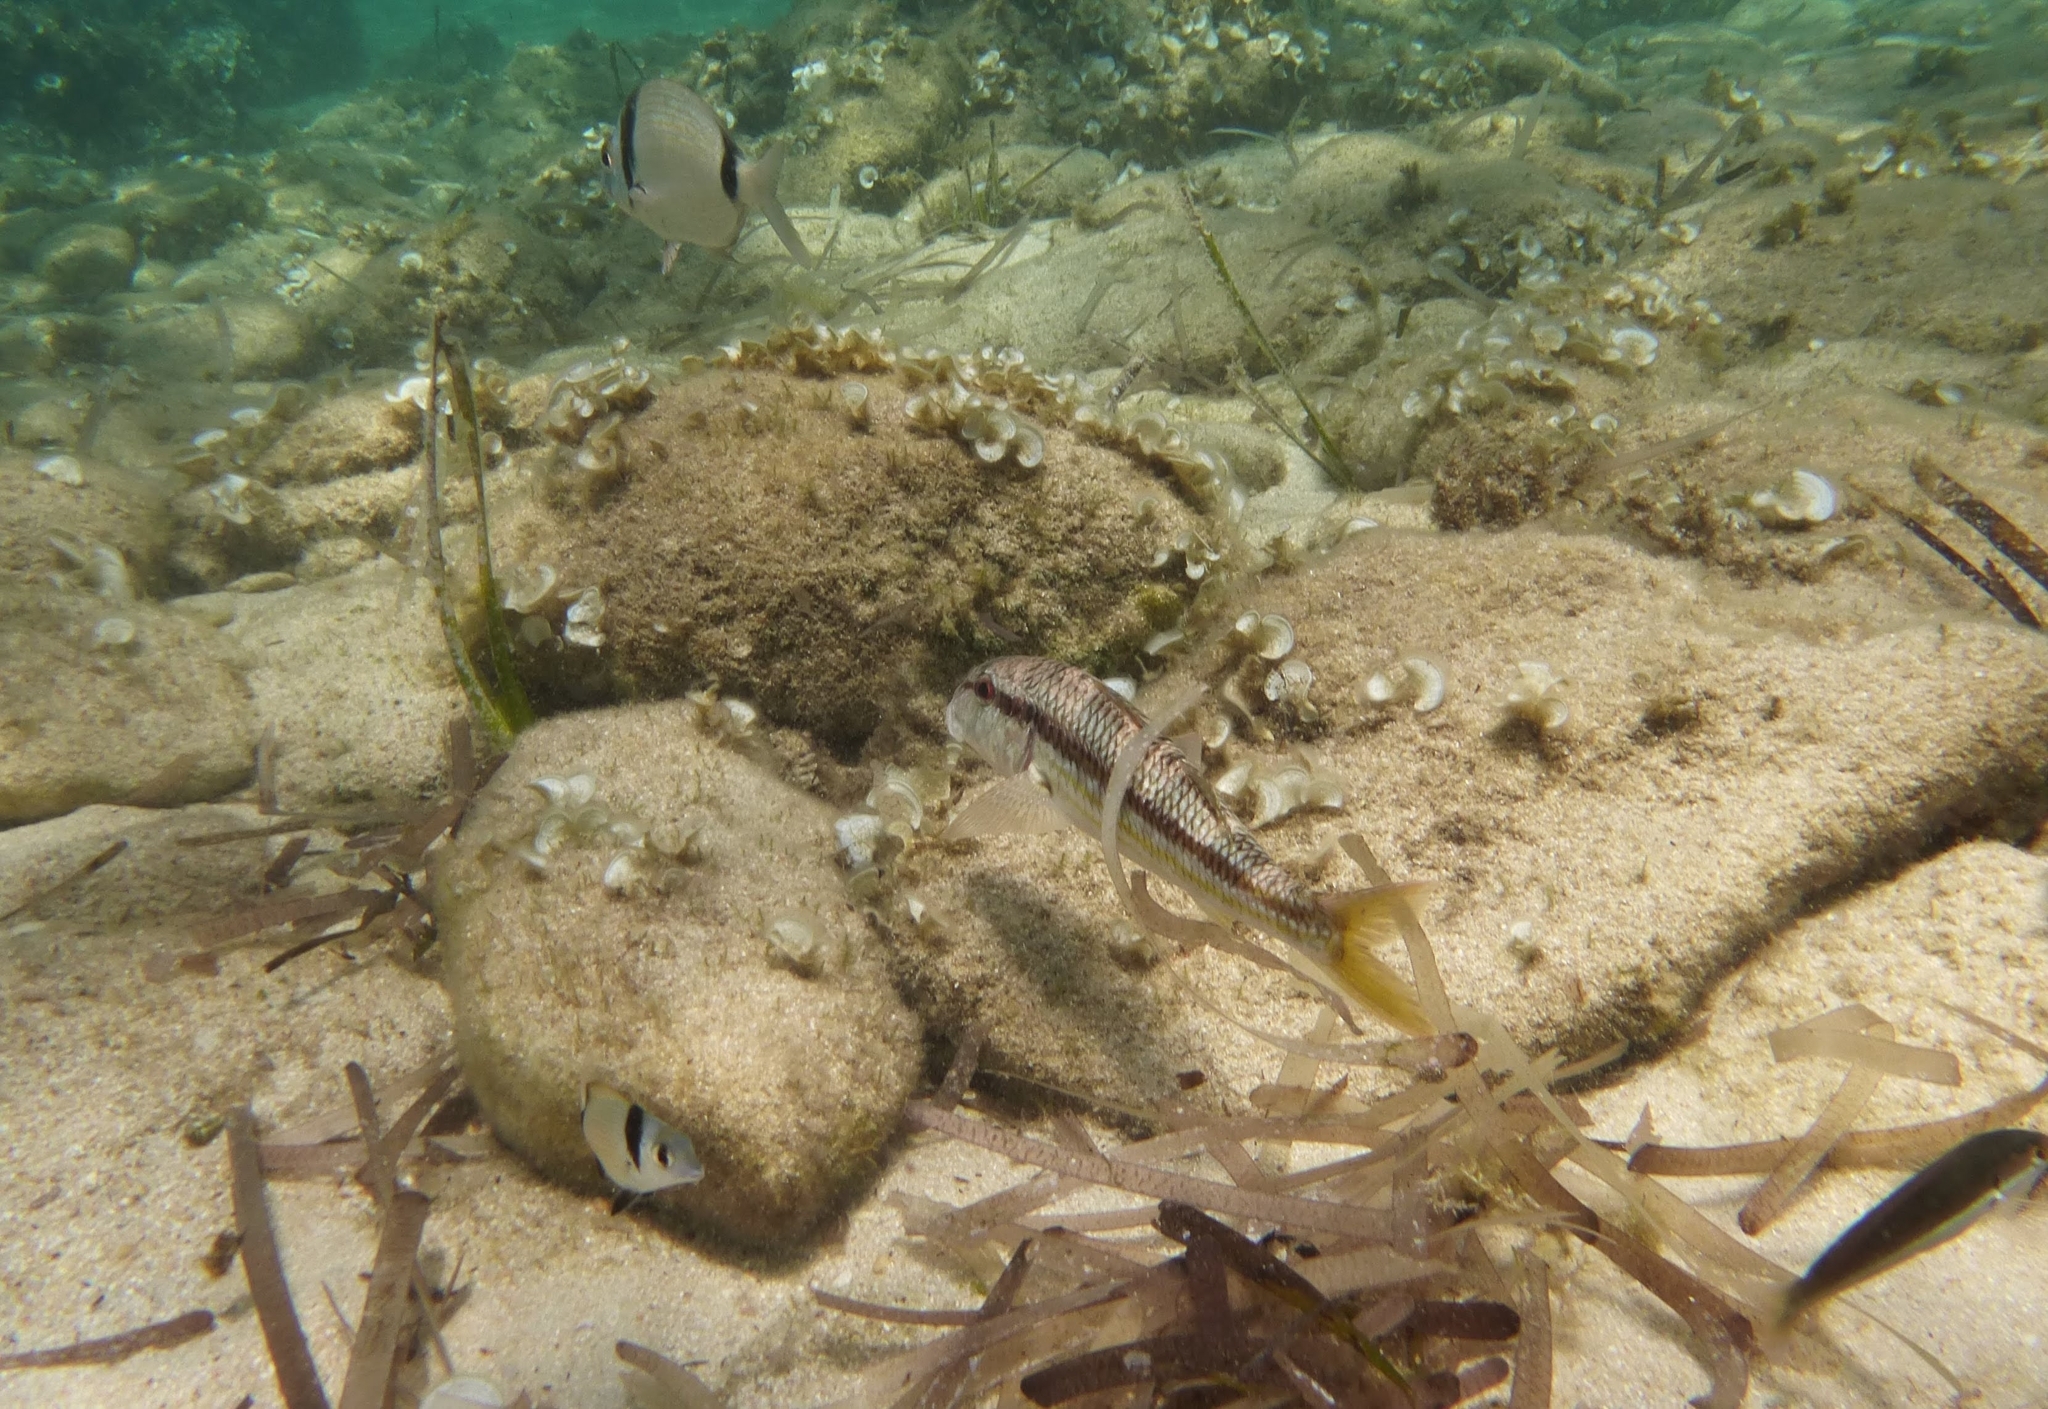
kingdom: Animalia
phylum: Chordata
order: Perciformes
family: Mullidae
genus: Mullus
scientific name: Mullus surmuletus
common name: Red mullet
